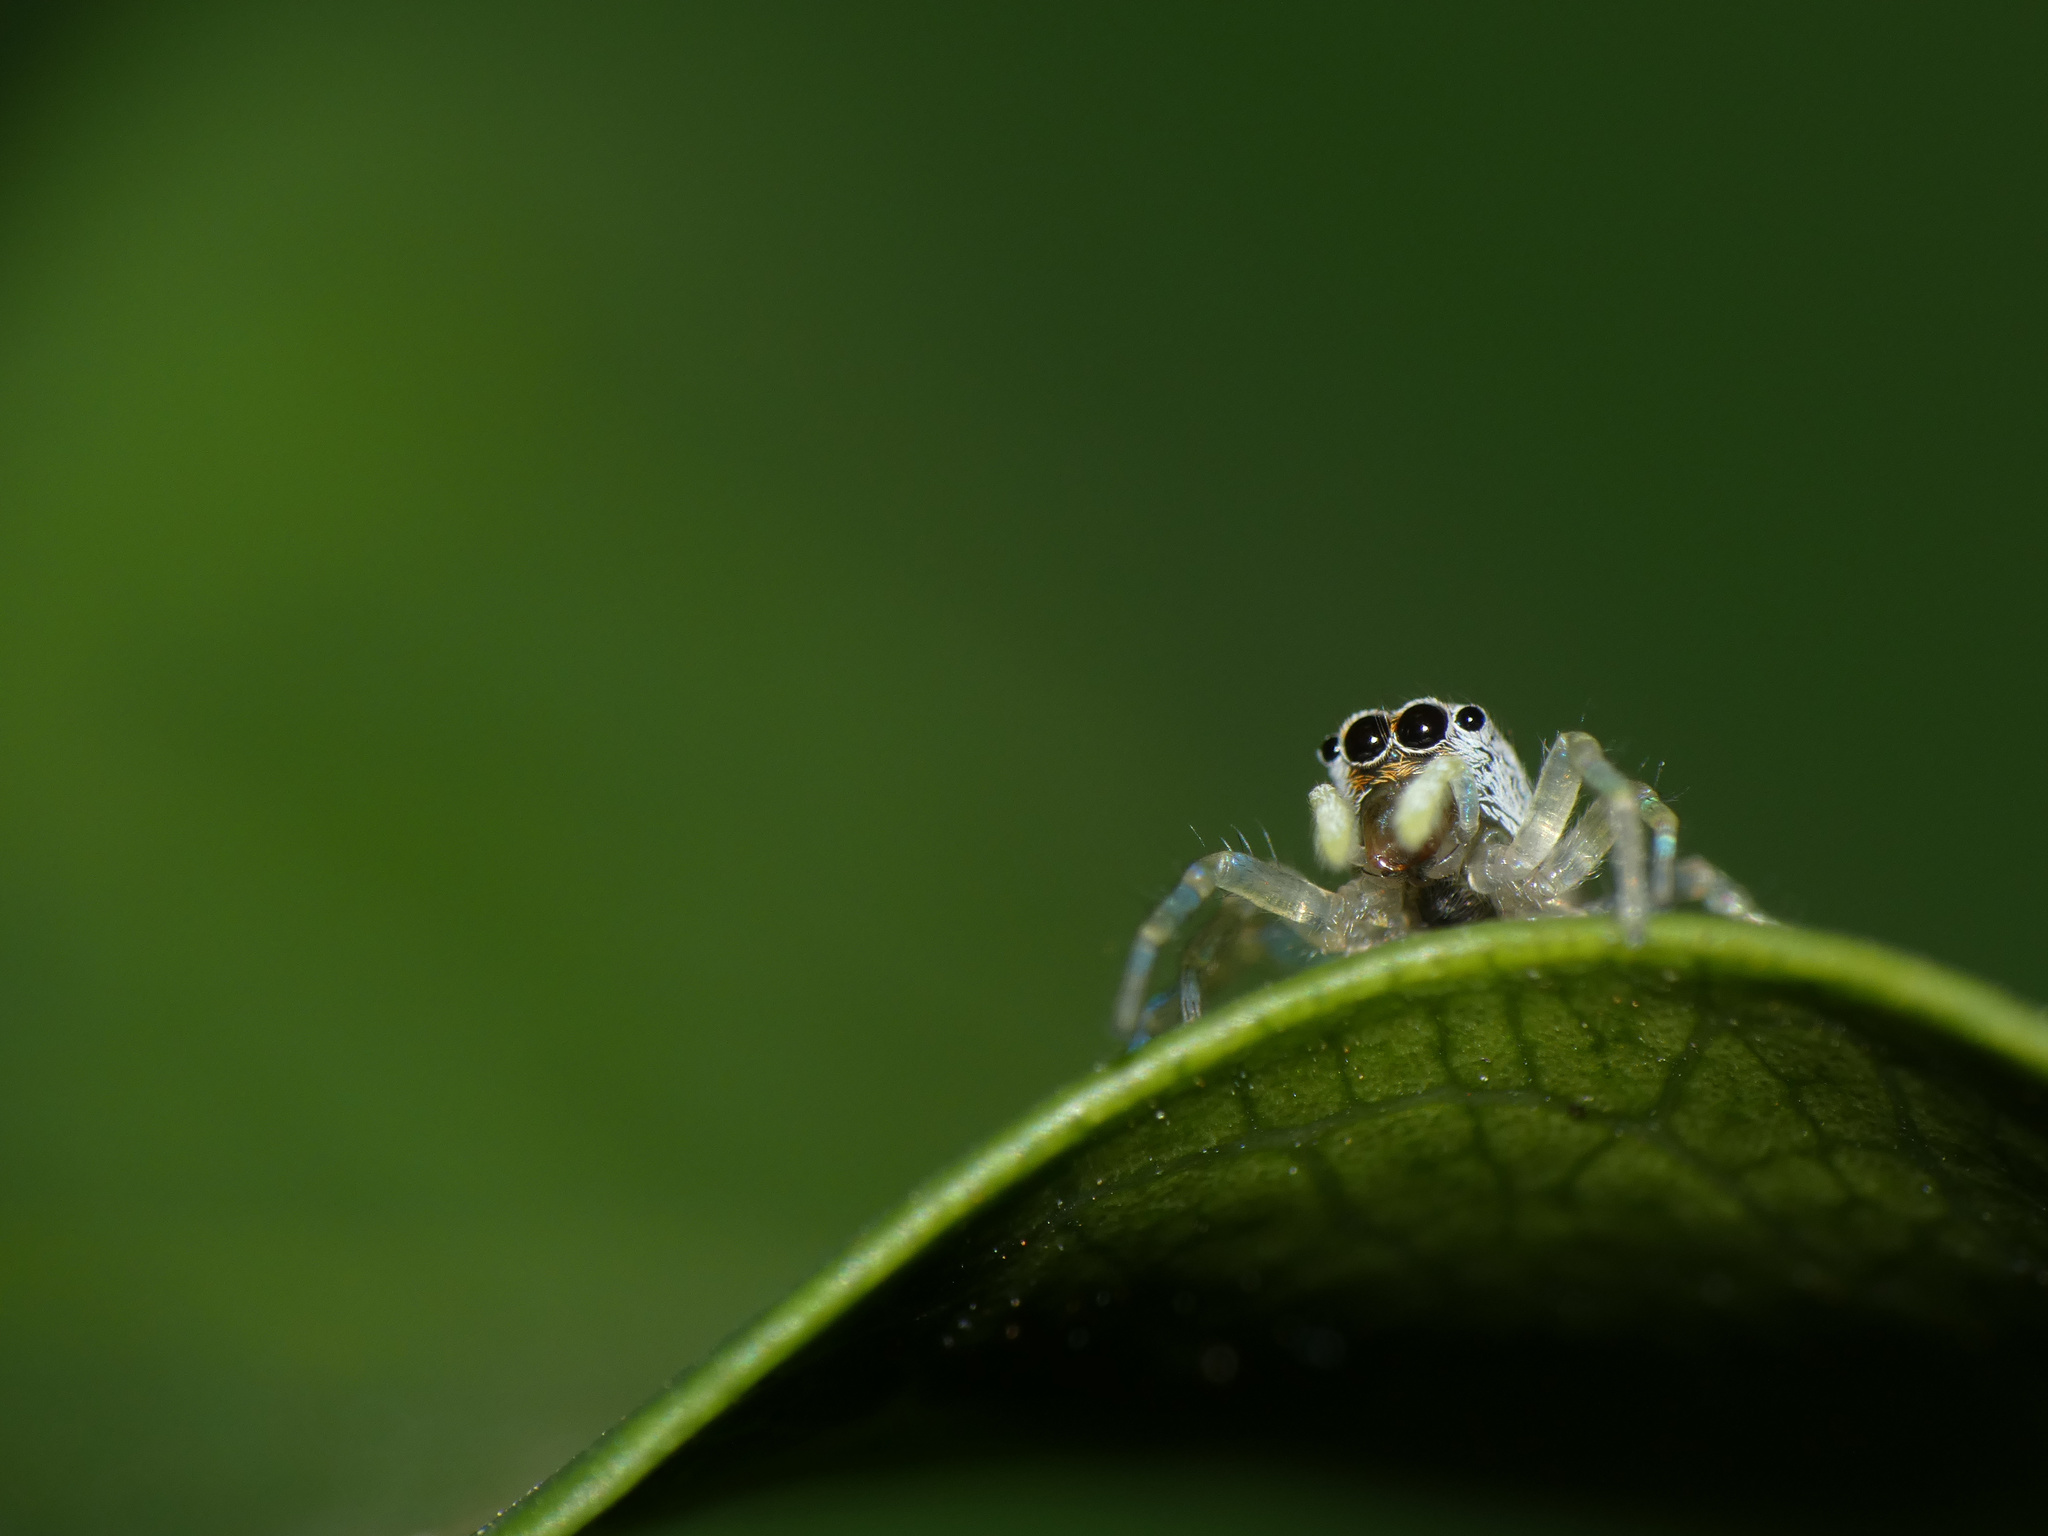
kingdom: Animalia
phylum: Arthropoda
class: Arachnida
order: Araneae
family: Salticidae
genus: Phintella
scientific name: Phintella lajuma
